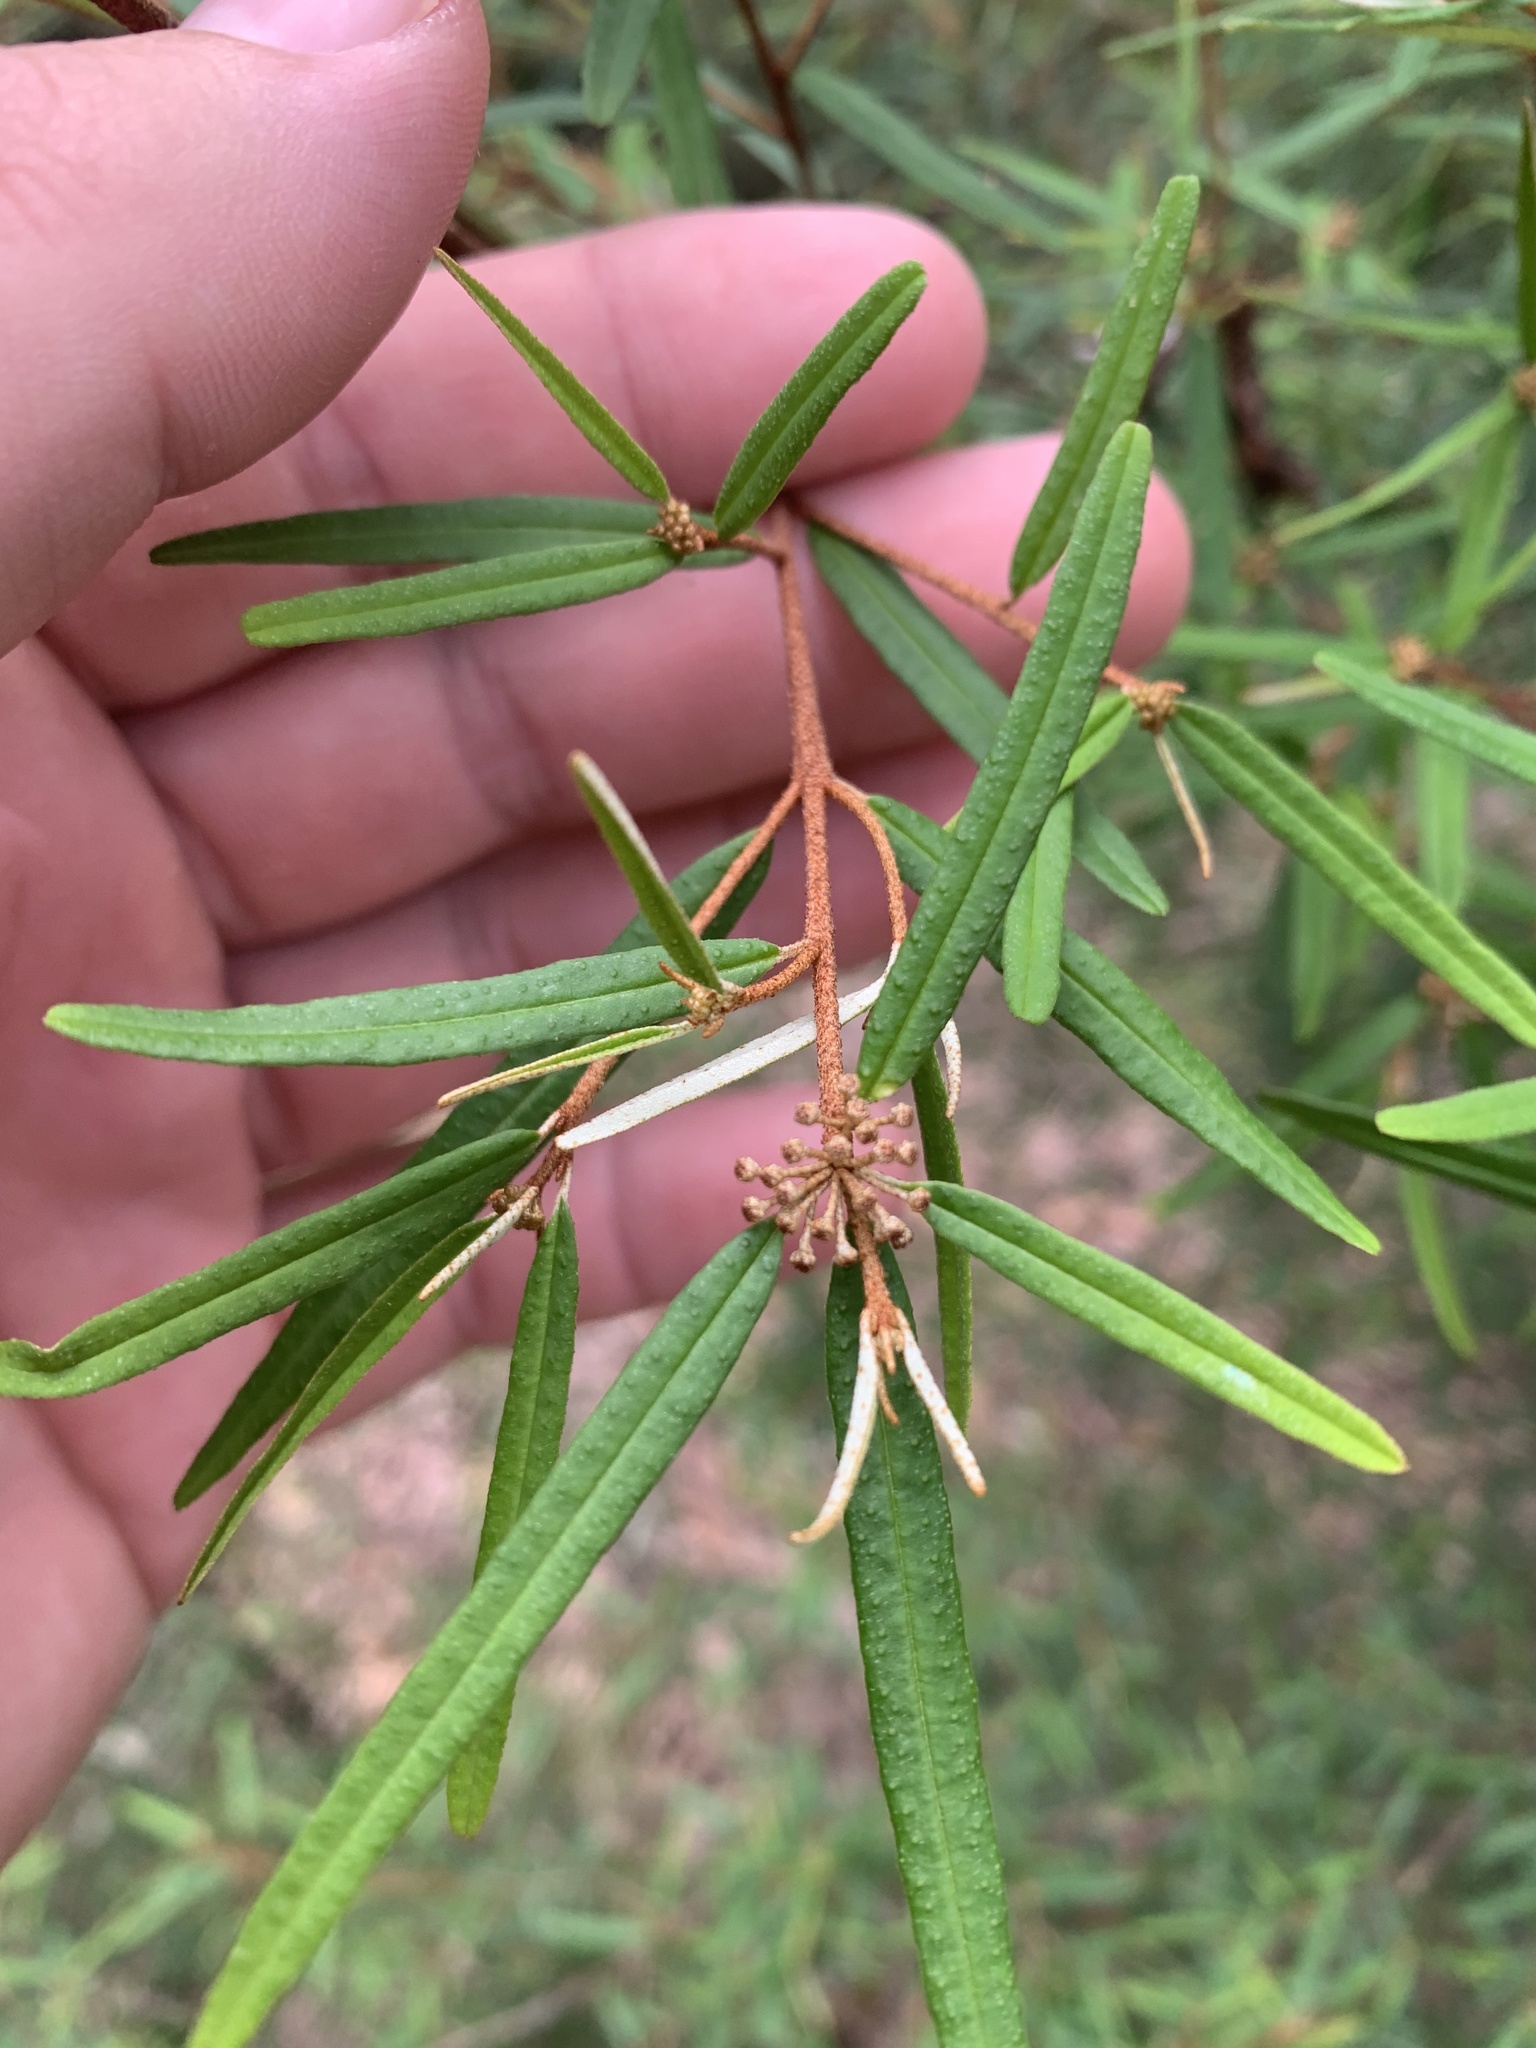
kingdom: Plantae
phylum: Tracheophyta
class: Magnoliopsida
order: Sapindales
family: Rutaceae
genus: Phebalium
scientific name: Phebalium squamulosum
